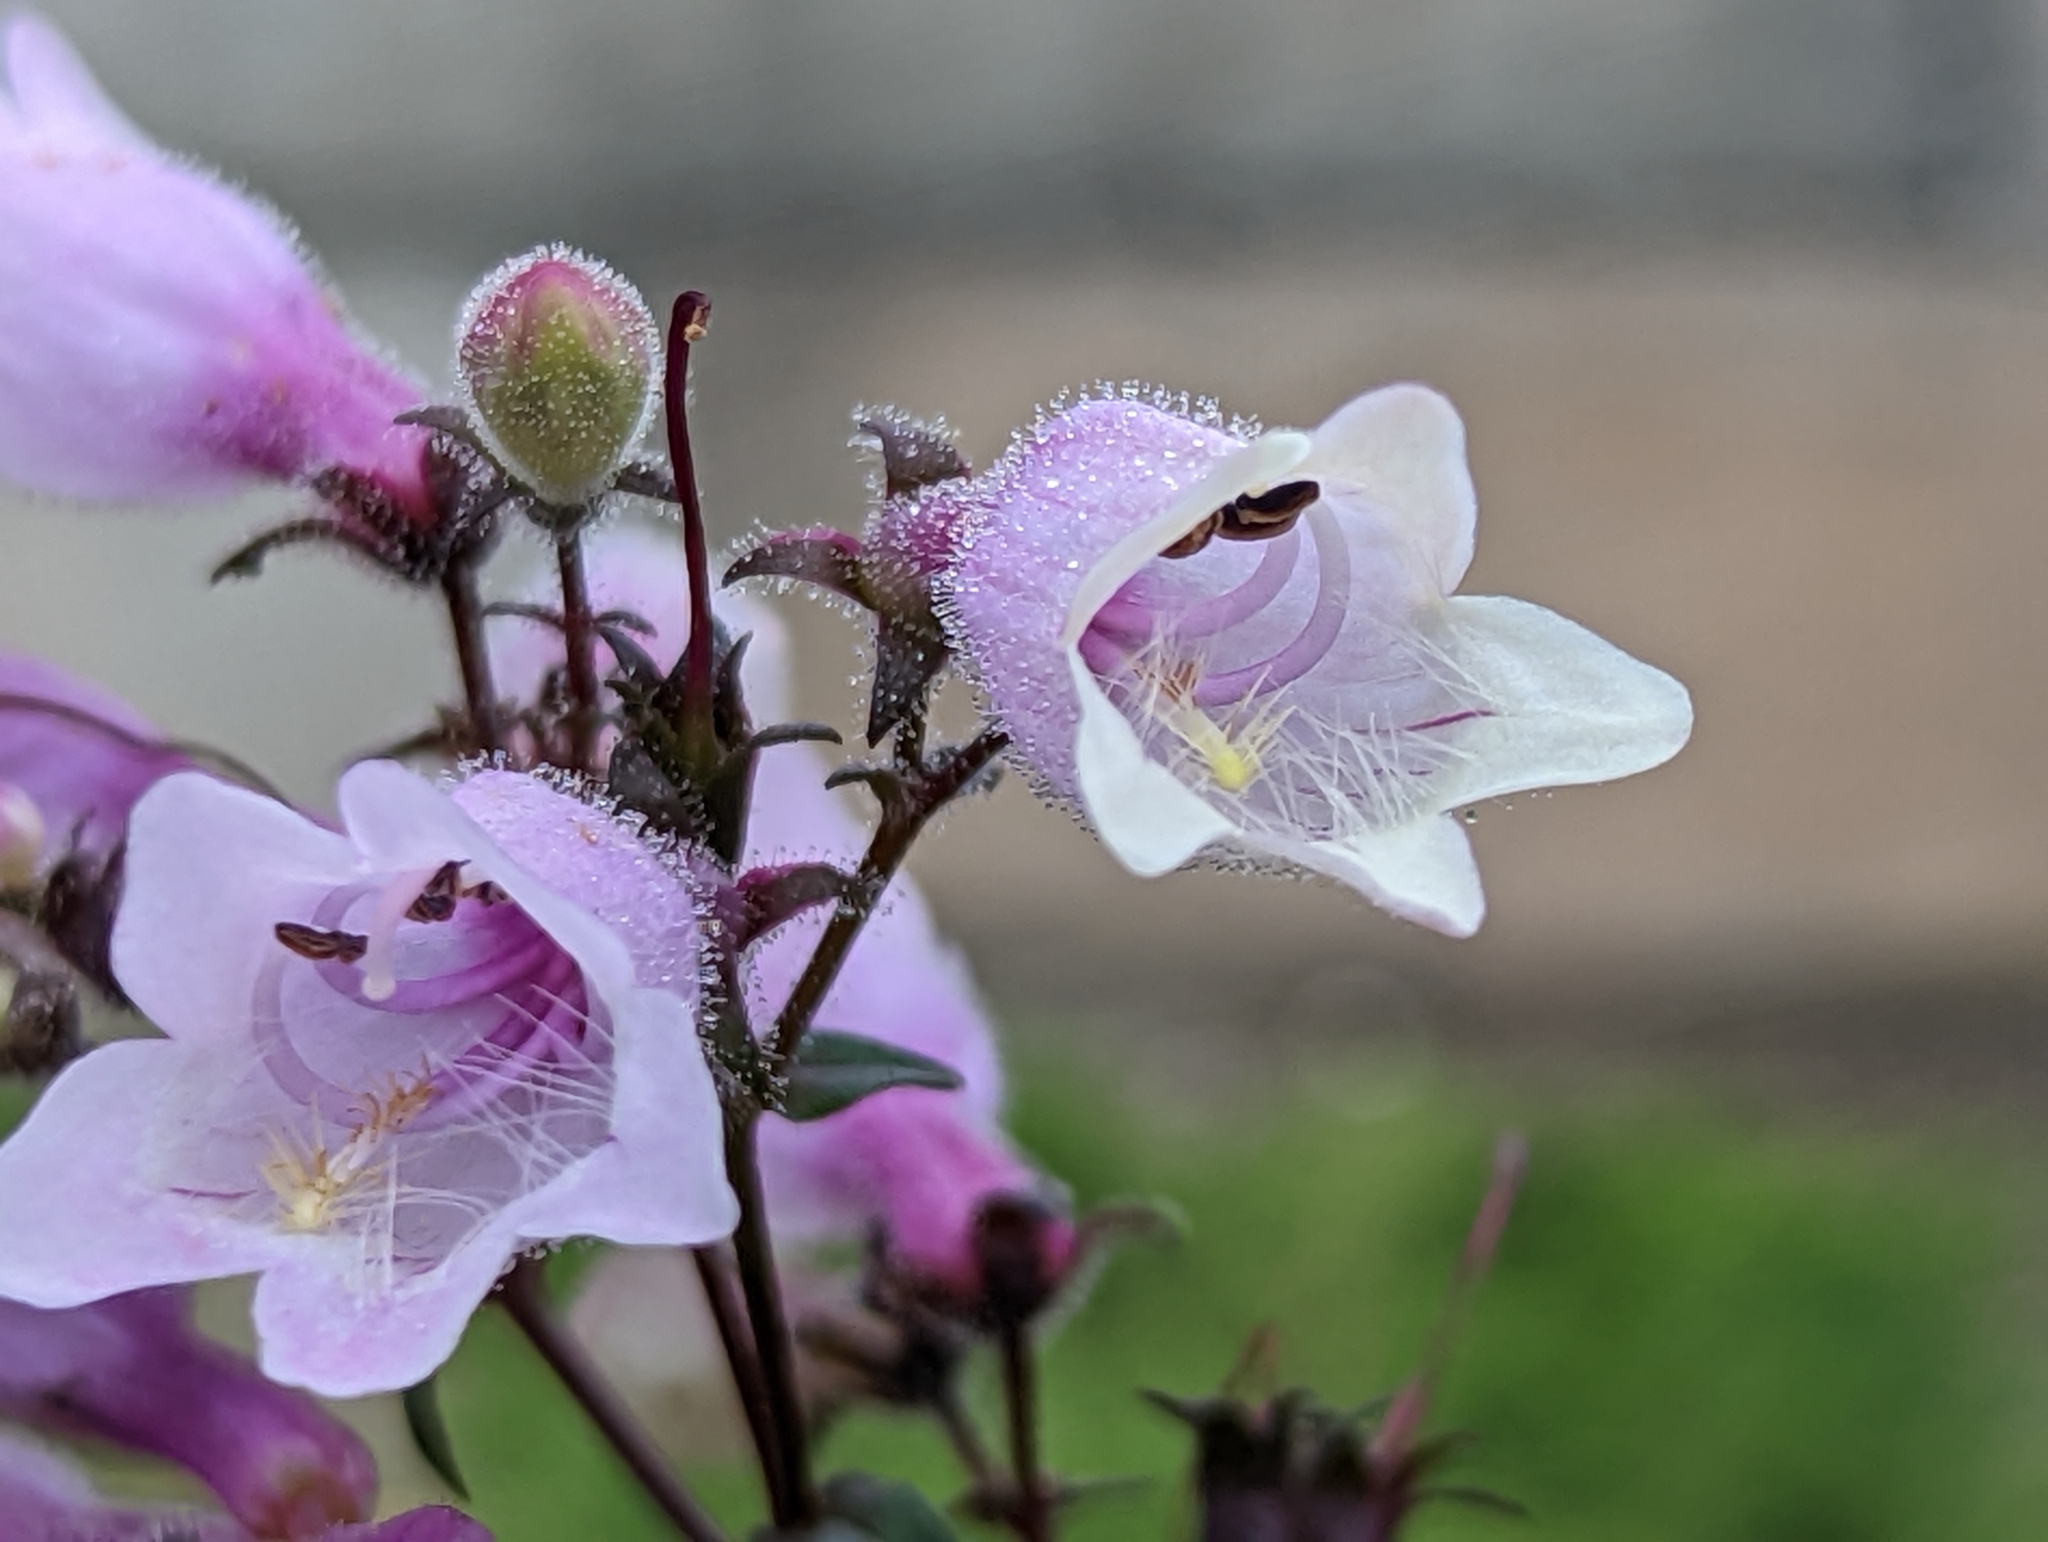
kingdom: Plantae
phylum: Tracheophyta
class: Magnoliopsida
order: Lamiales
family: Plantaginaceae
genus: Penstemon
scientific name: Penstemon hirsutus
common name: Hairy beardtongue
